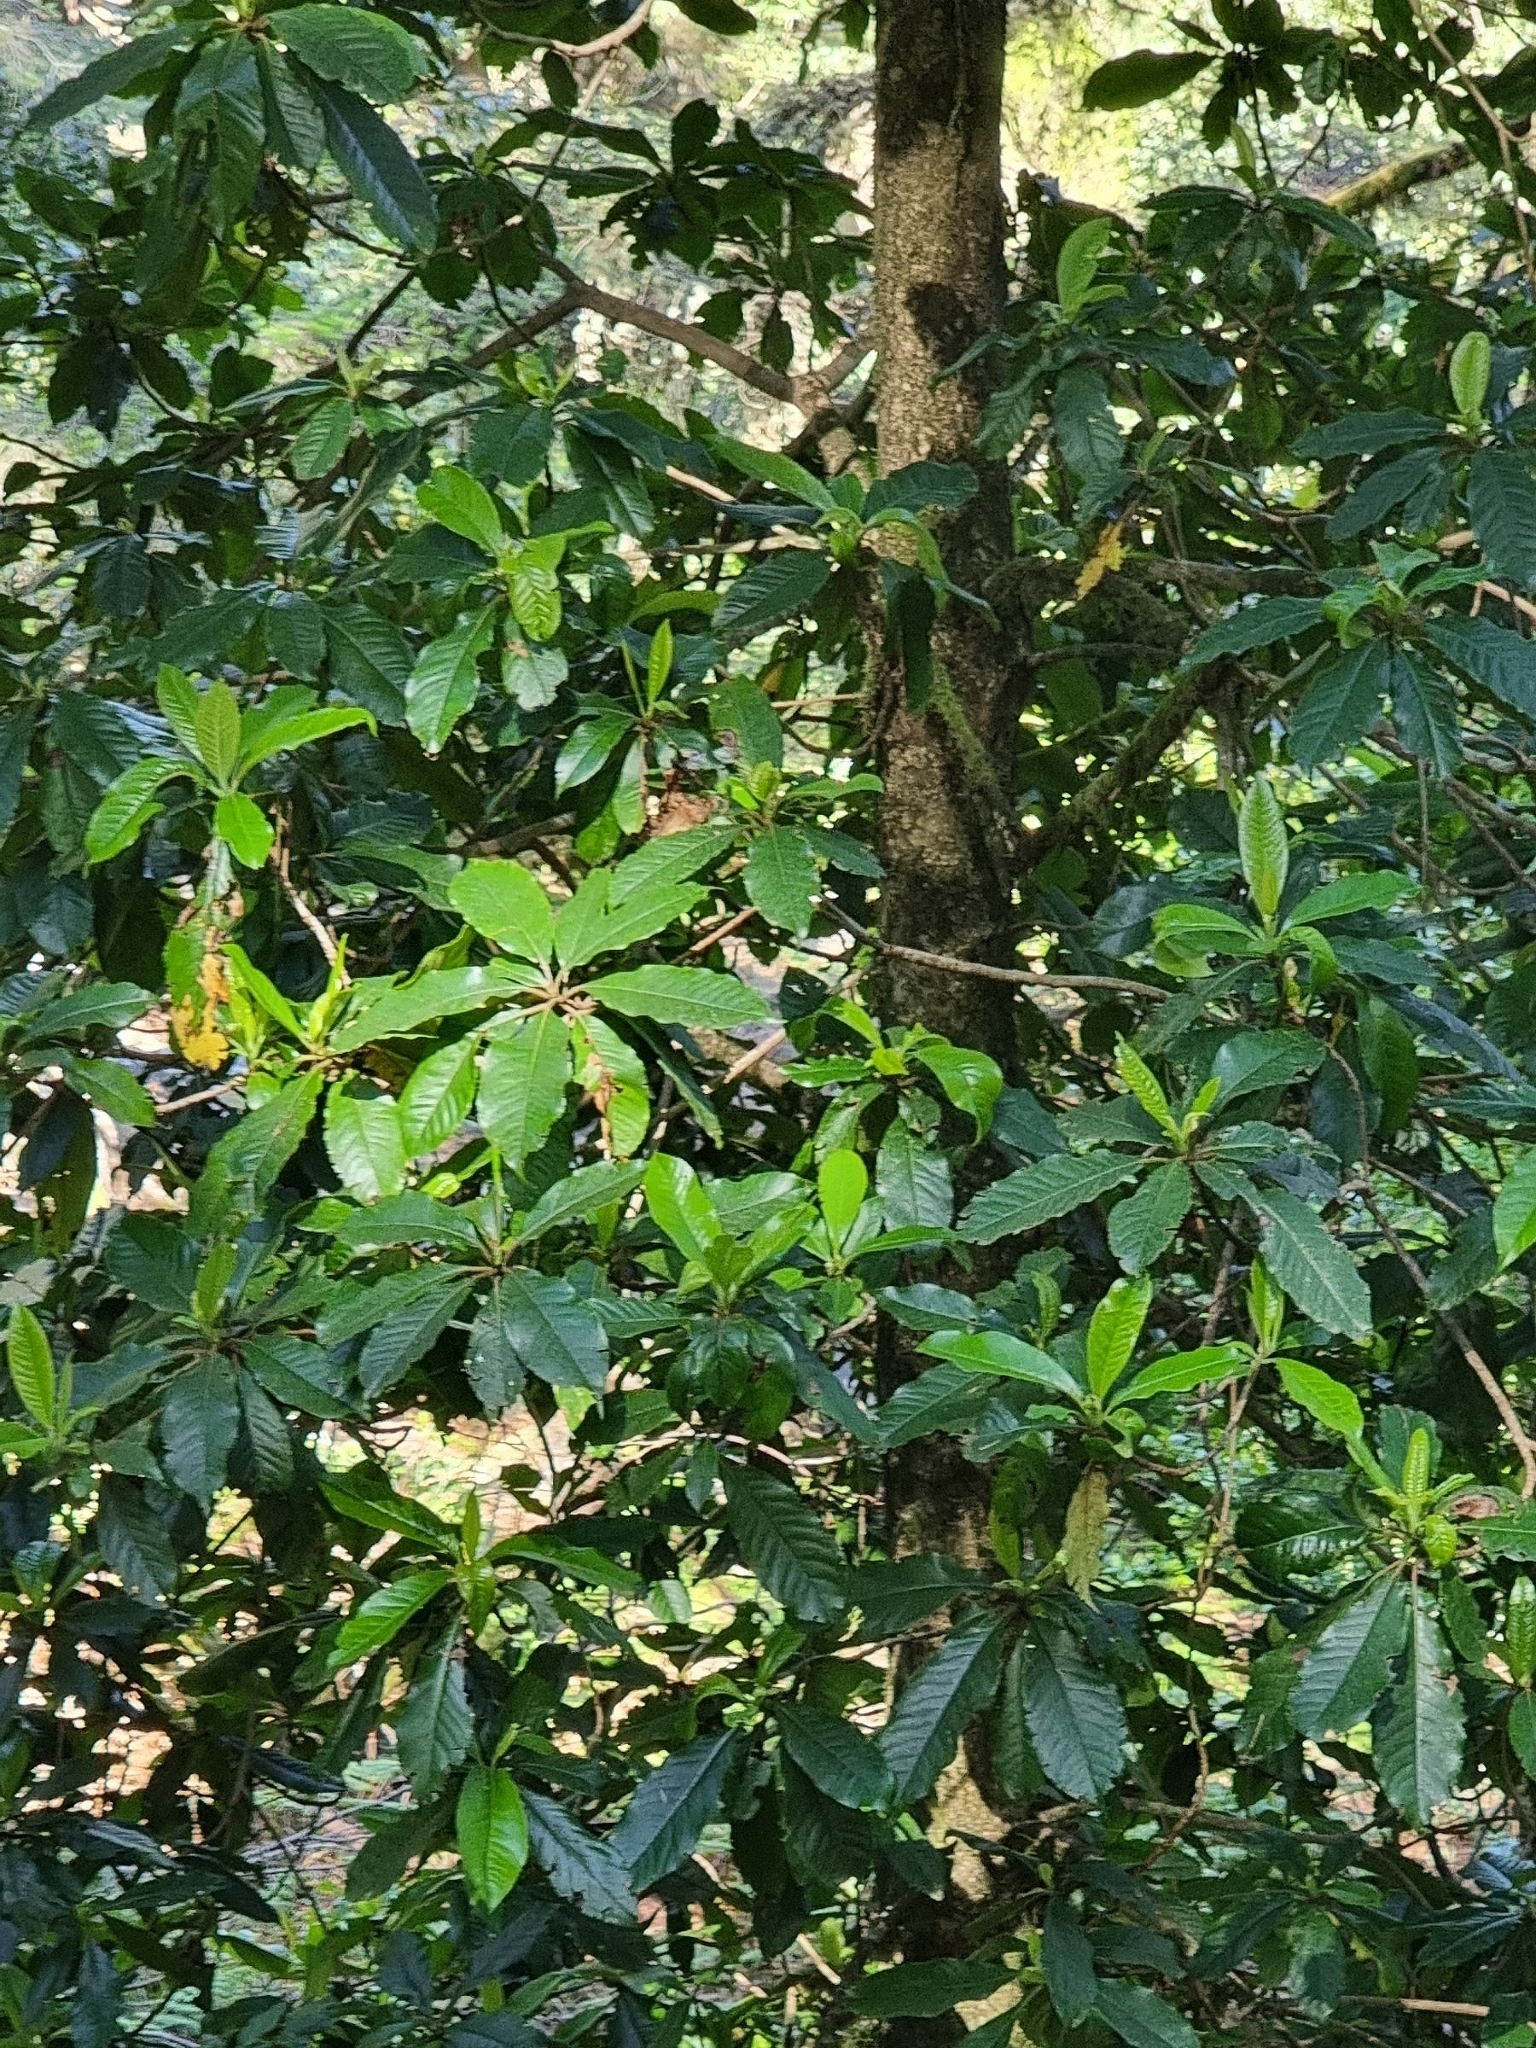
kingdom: Plantae
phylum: Tracheophyta
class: Magnoliopsida
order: Ericales
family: Clethraceae
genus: Clethra
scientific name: Clethra arborea
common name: Lily-of-the-valley-tree
